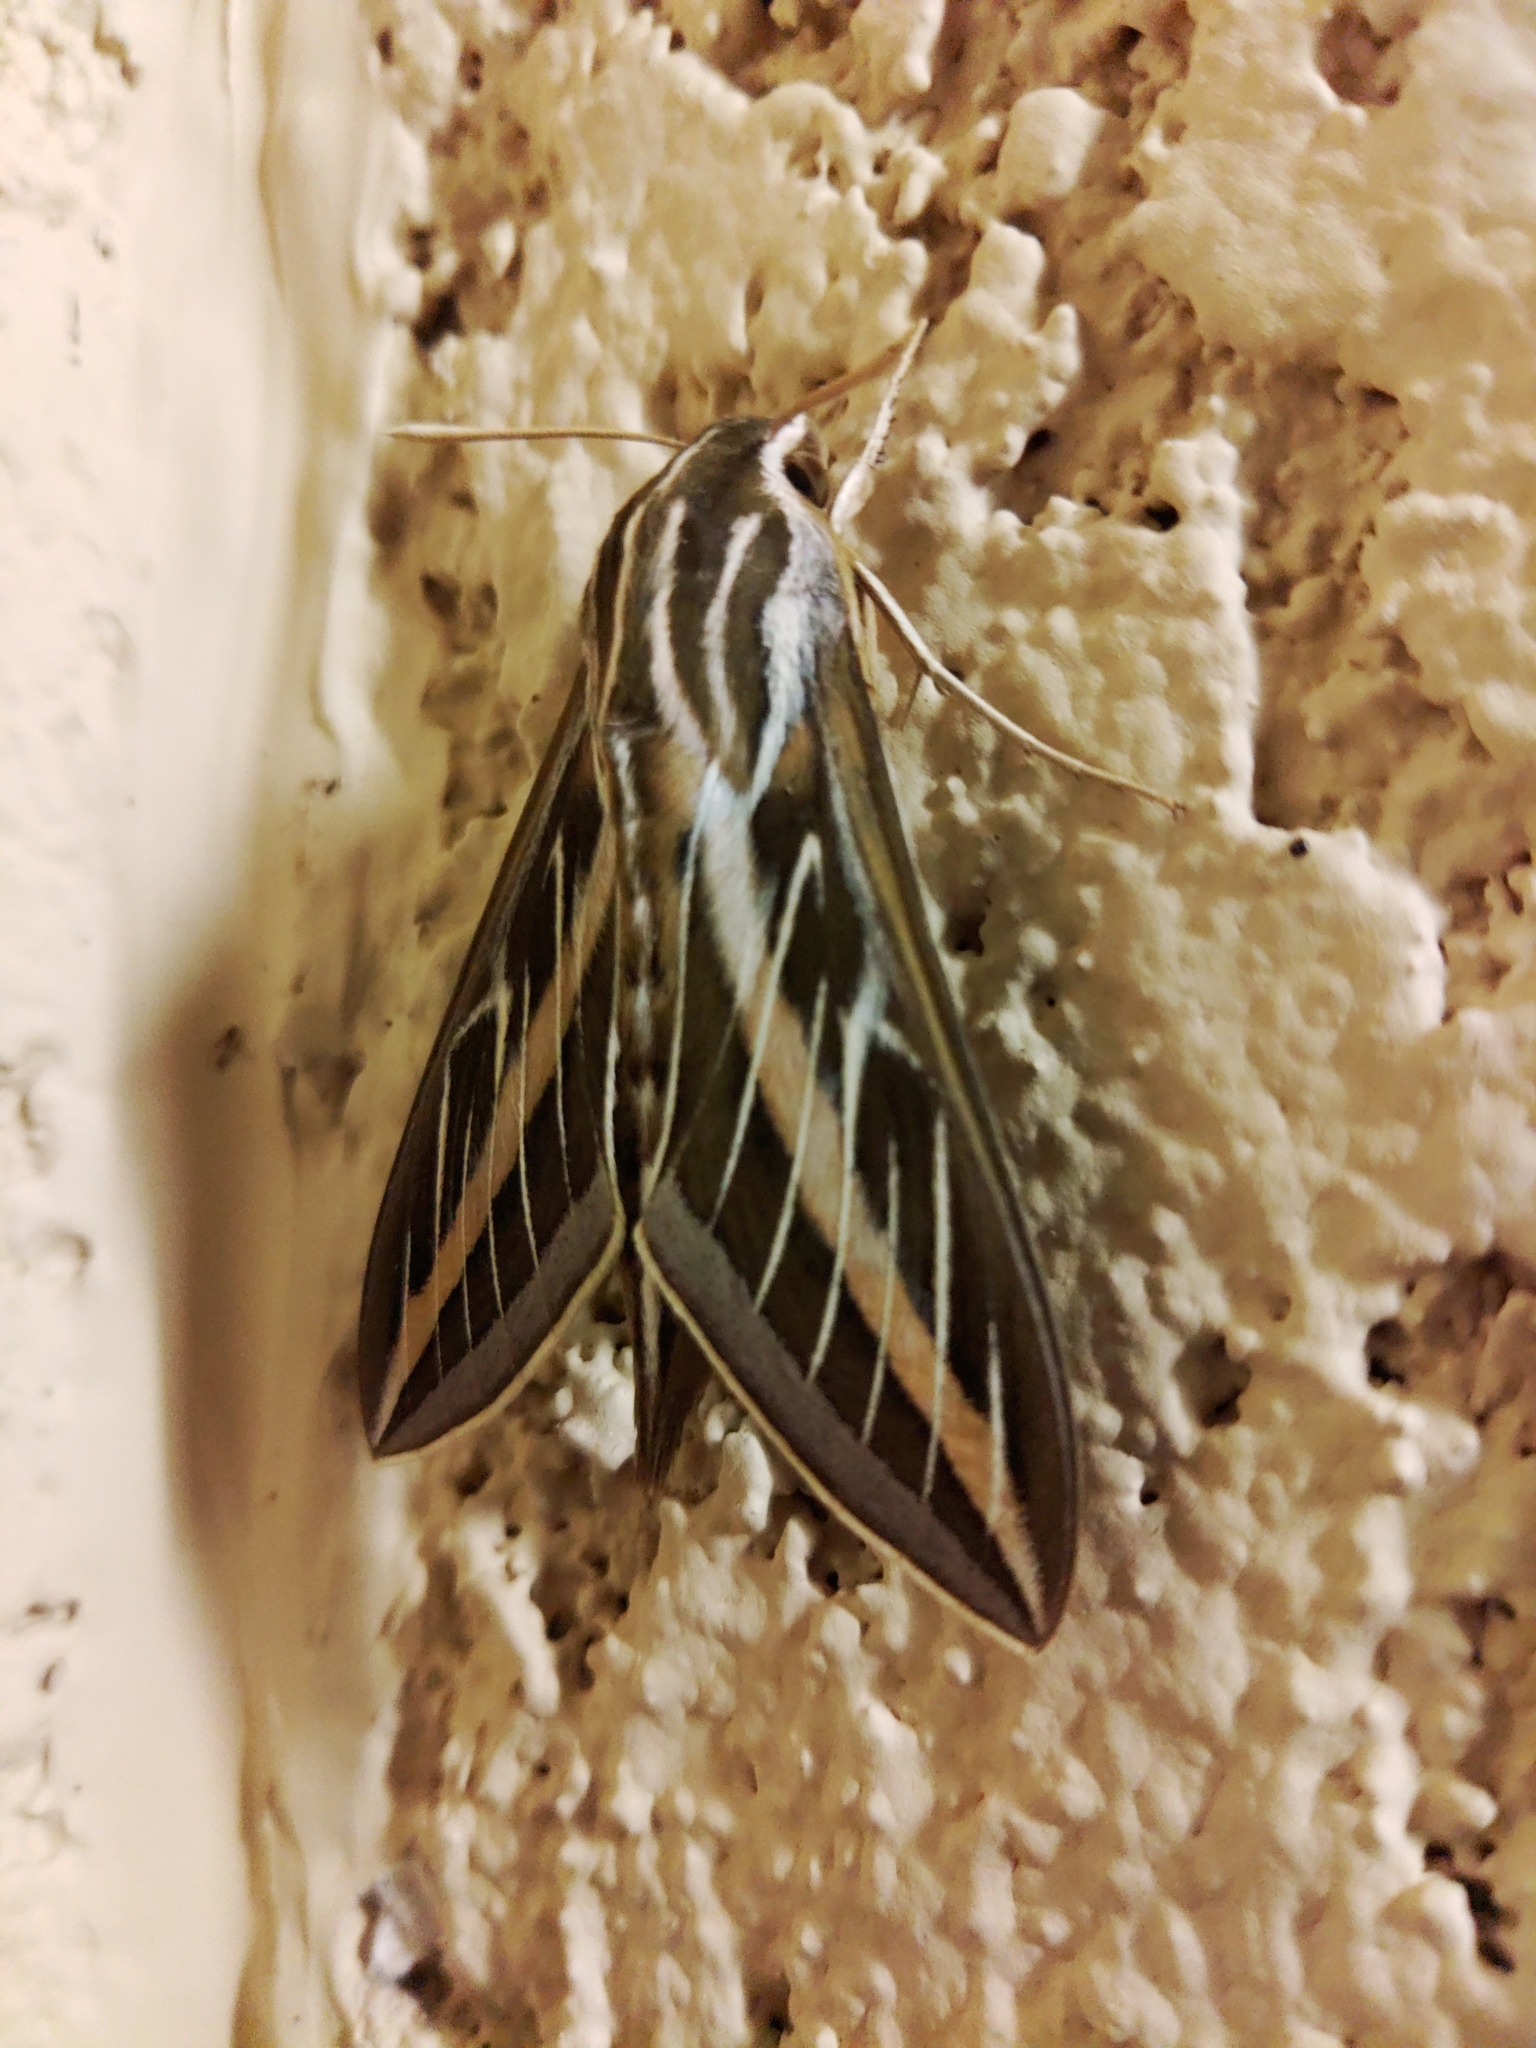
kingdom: Animalia
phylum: Arthropoda
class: Insecta
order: Lepidoptera
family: Sphingidae
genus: Hyles
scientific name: Hyles lineata
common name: White-lined sphinx
